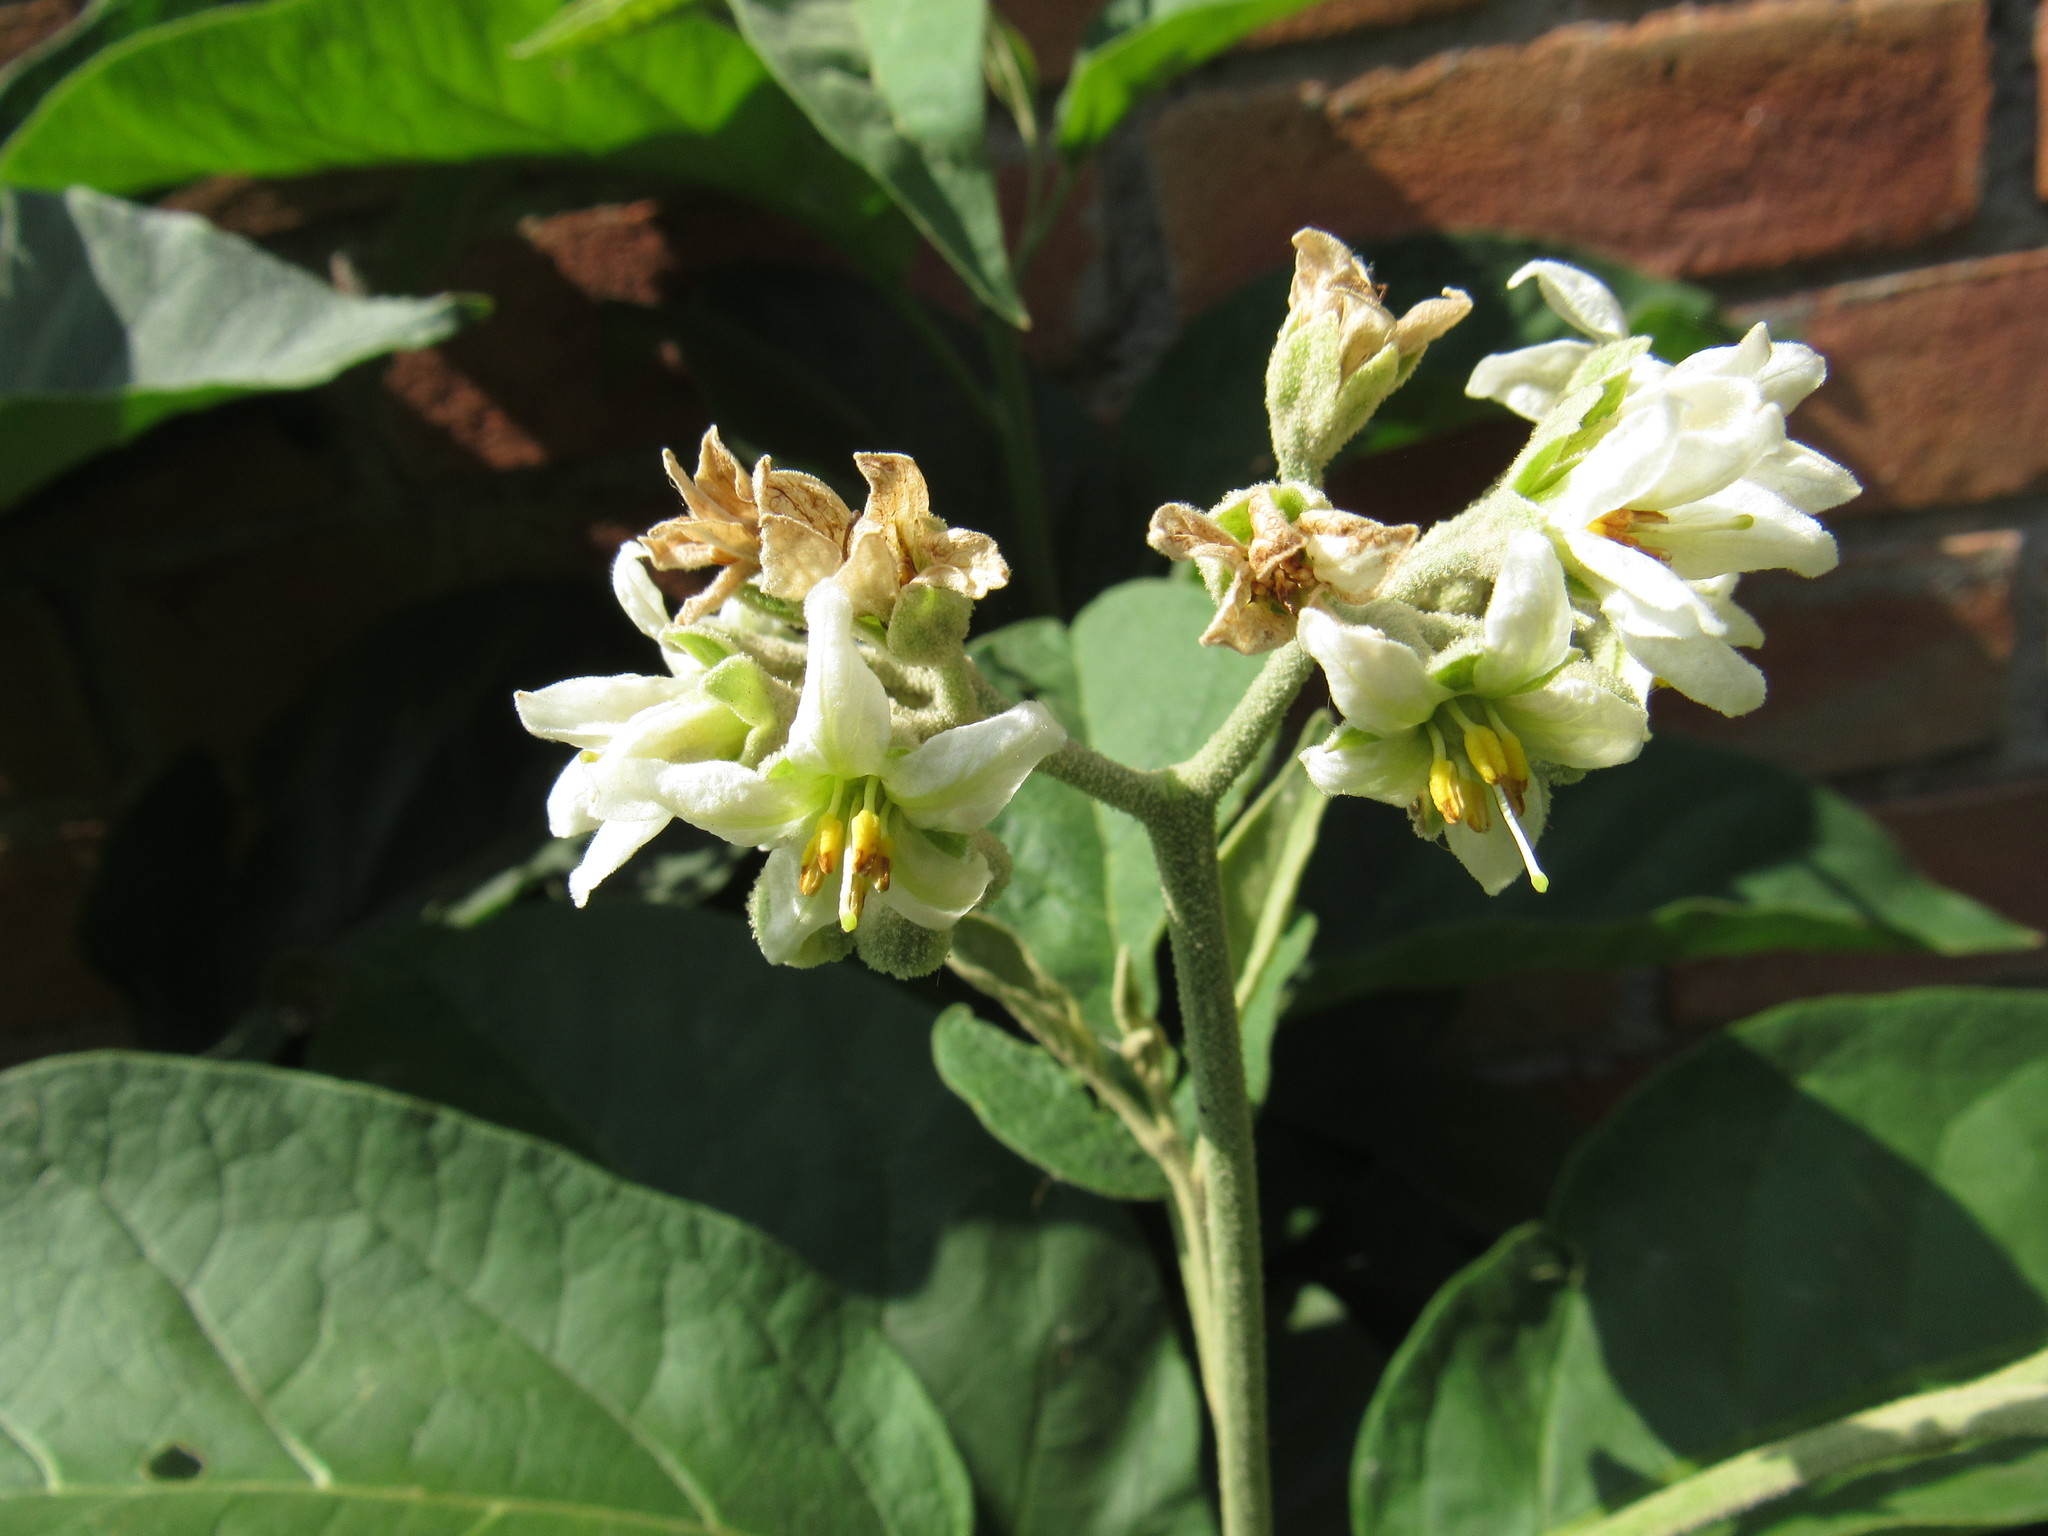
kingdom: Plantae
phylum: Tracheophyta
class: Magnoliopsida
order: Solanales
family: Solanaceae
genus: Solanum
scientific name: Solanum erianthum
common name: Tobacco-tree
